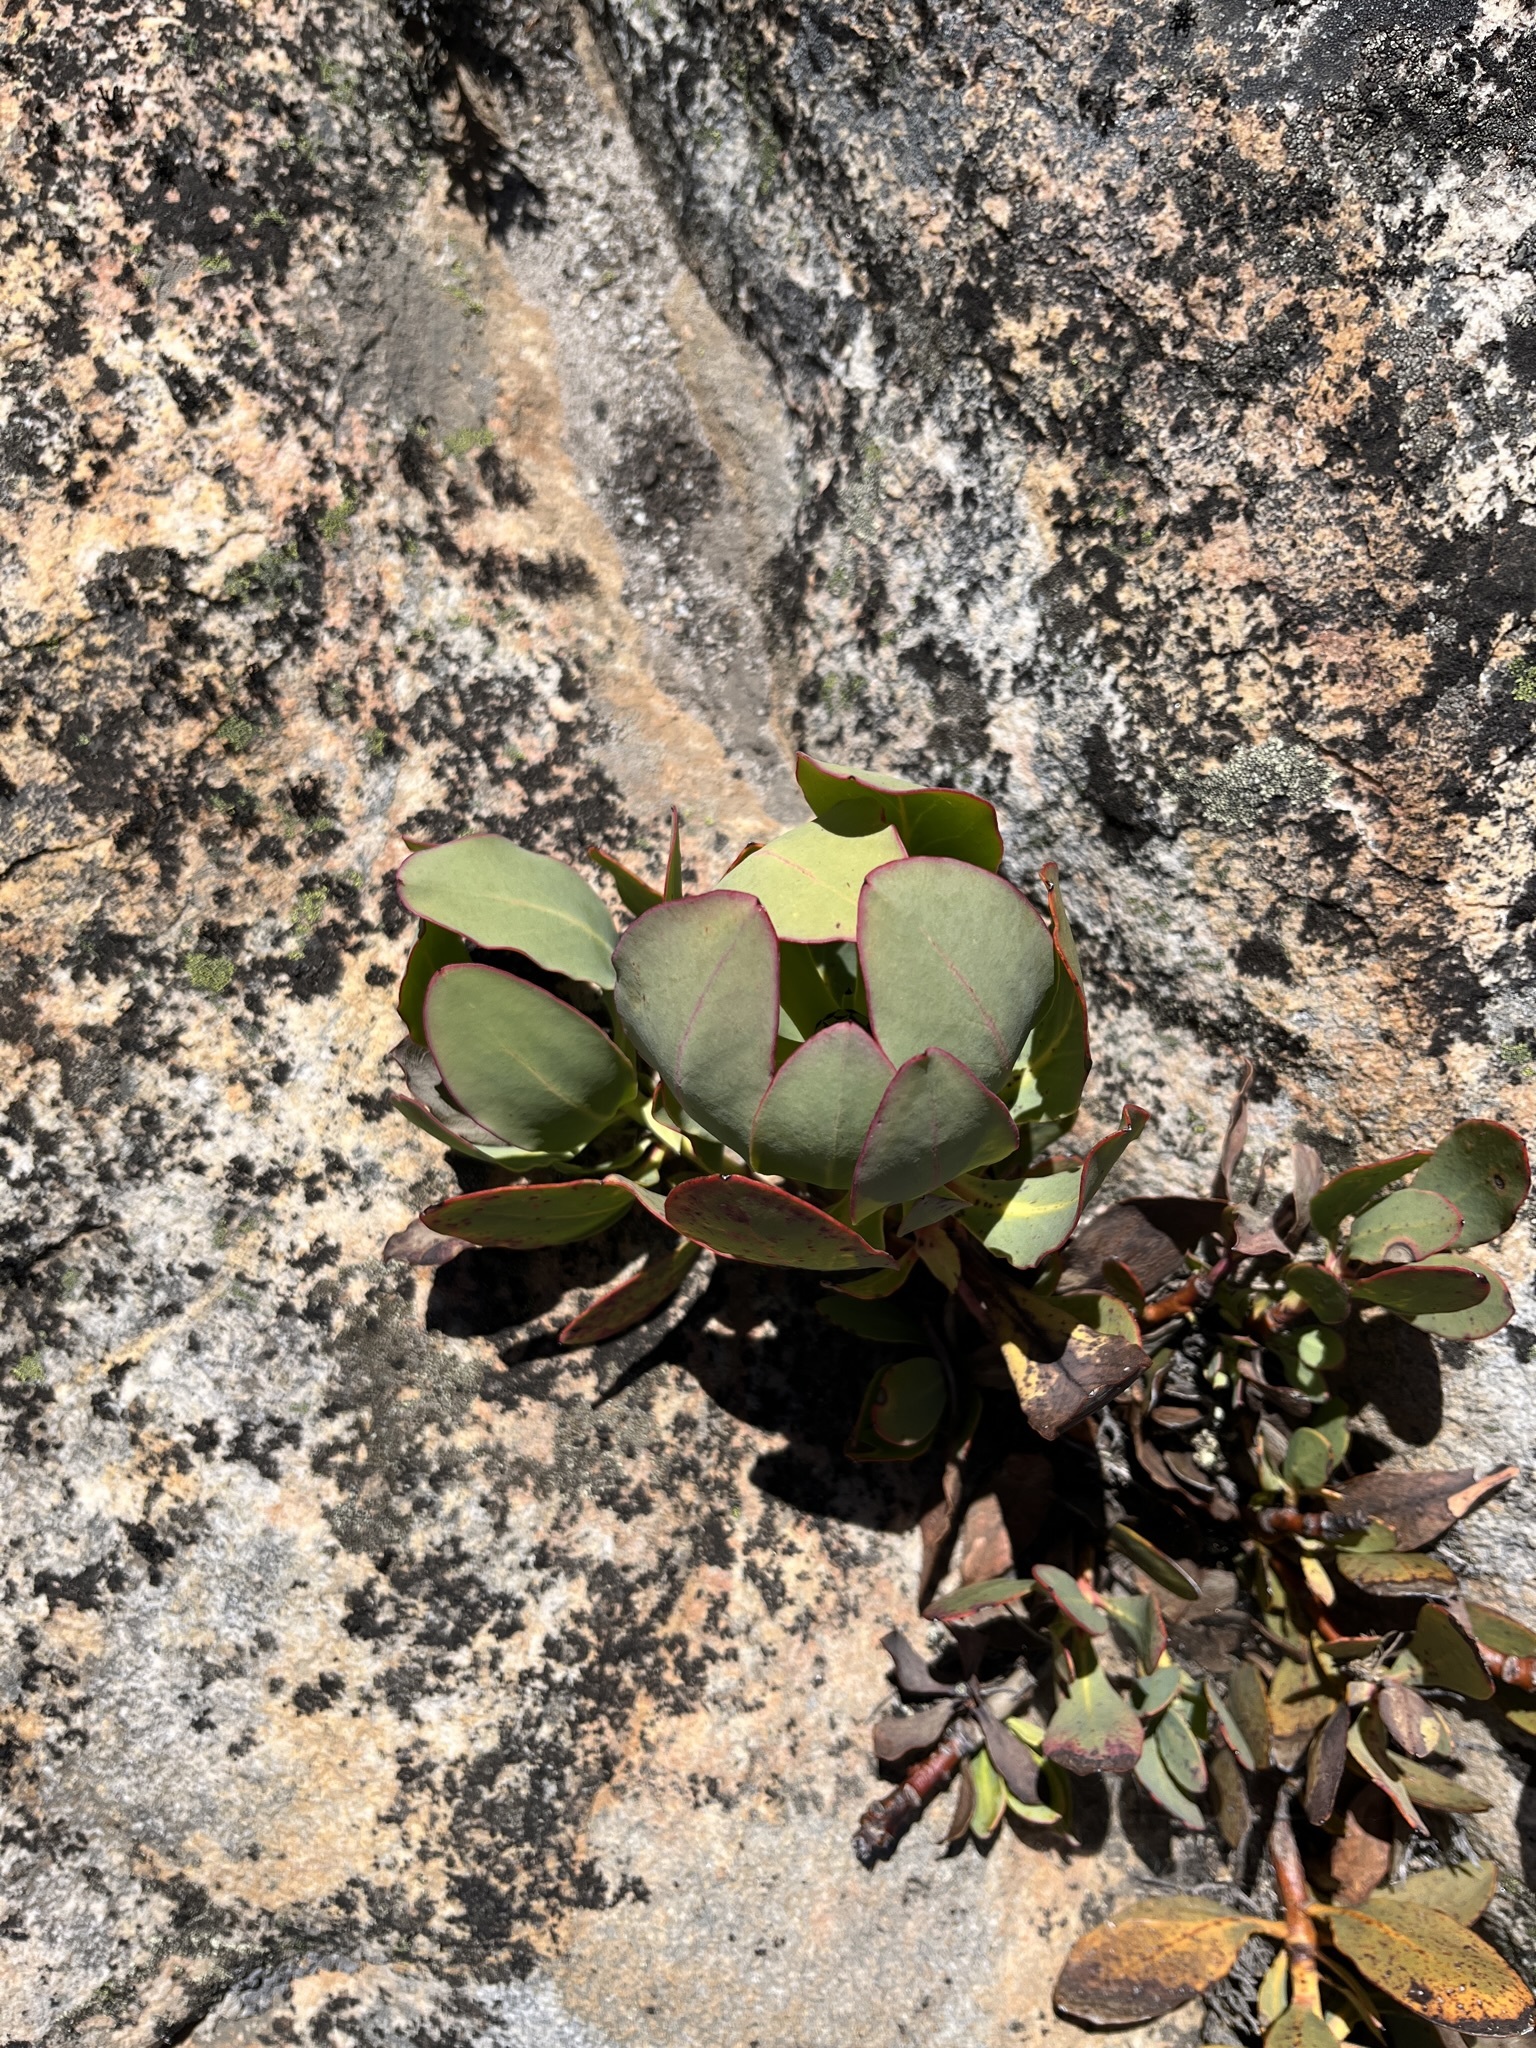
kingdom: Plantae
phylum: Tracheophyta
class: Magnoliopsida
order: Proteales
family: Proteaceae
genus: Protea
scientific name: Protea recondita
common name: Hidden sugarbush
